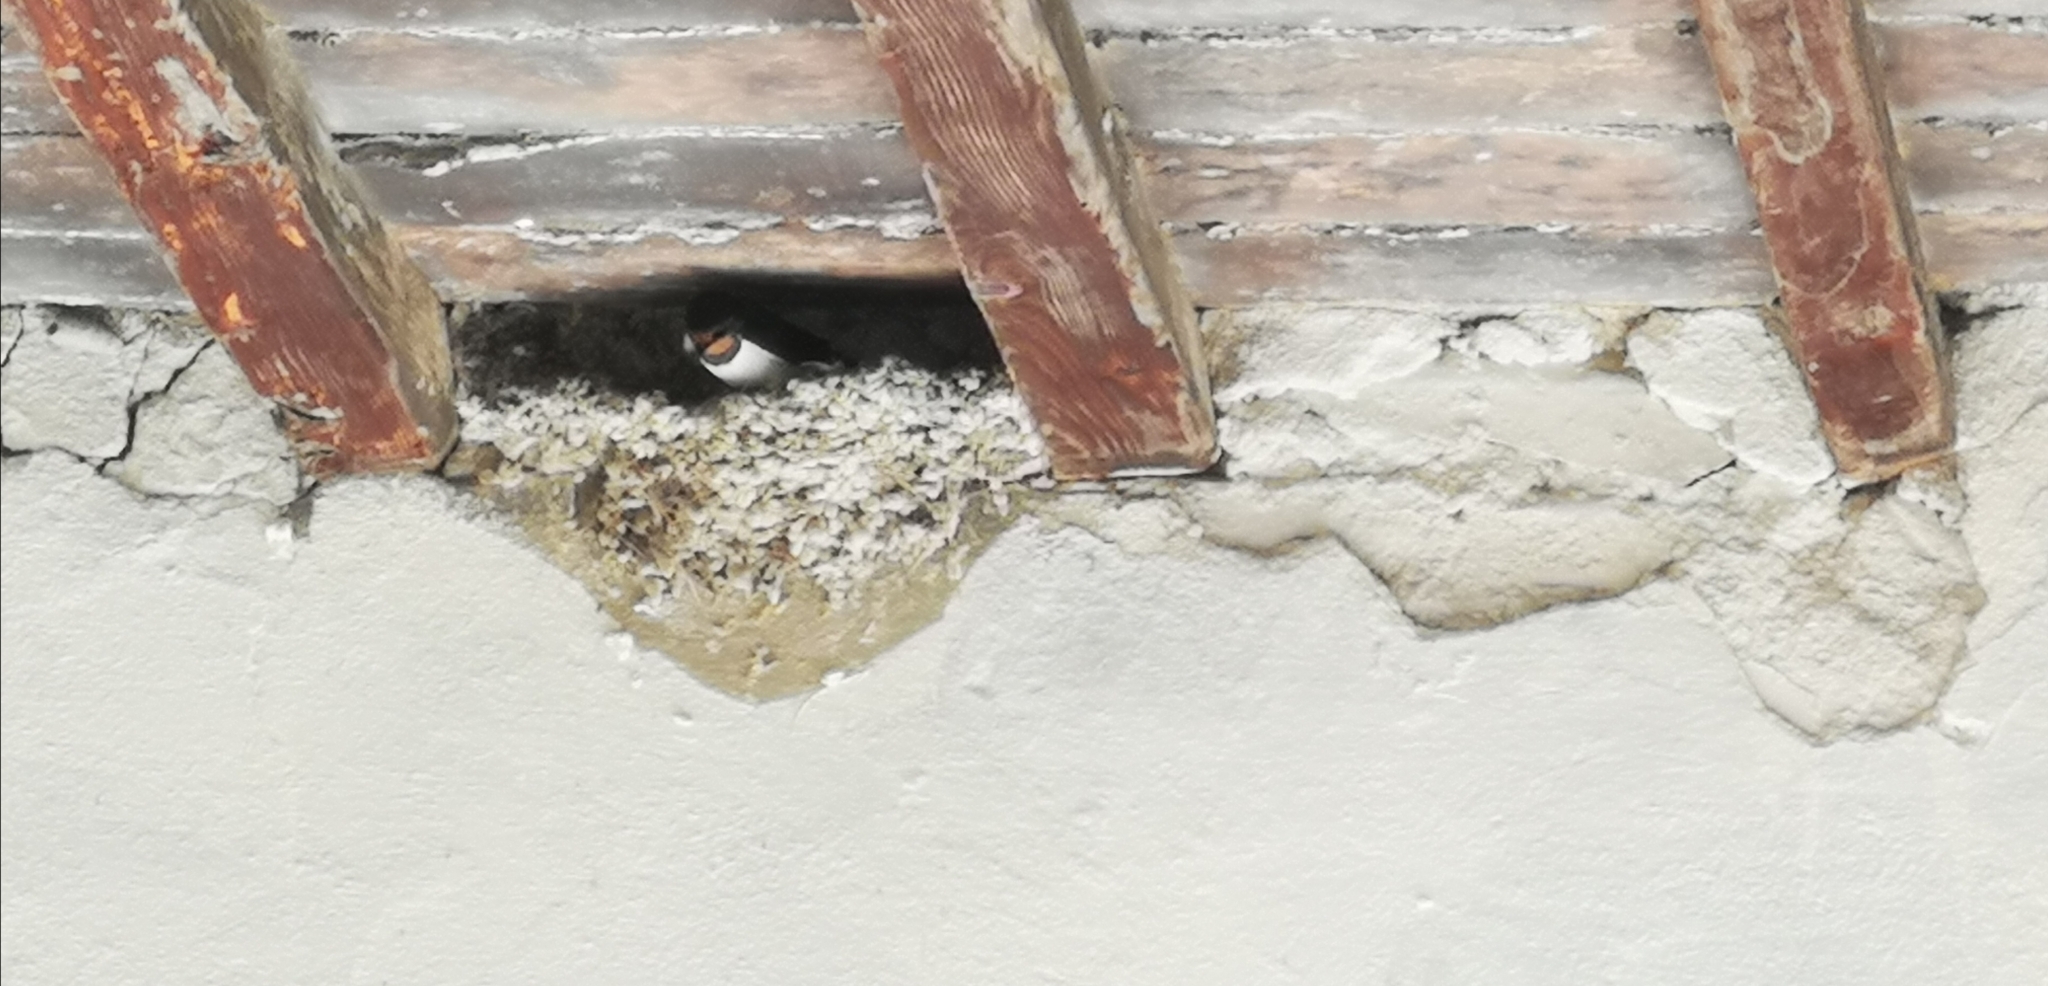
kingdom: Animalia
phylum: Chordata
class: Aves
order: Passeriformes
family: Hirundinidae
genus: Hirundo
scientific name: Hirundo rustica
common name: Barn swallow
